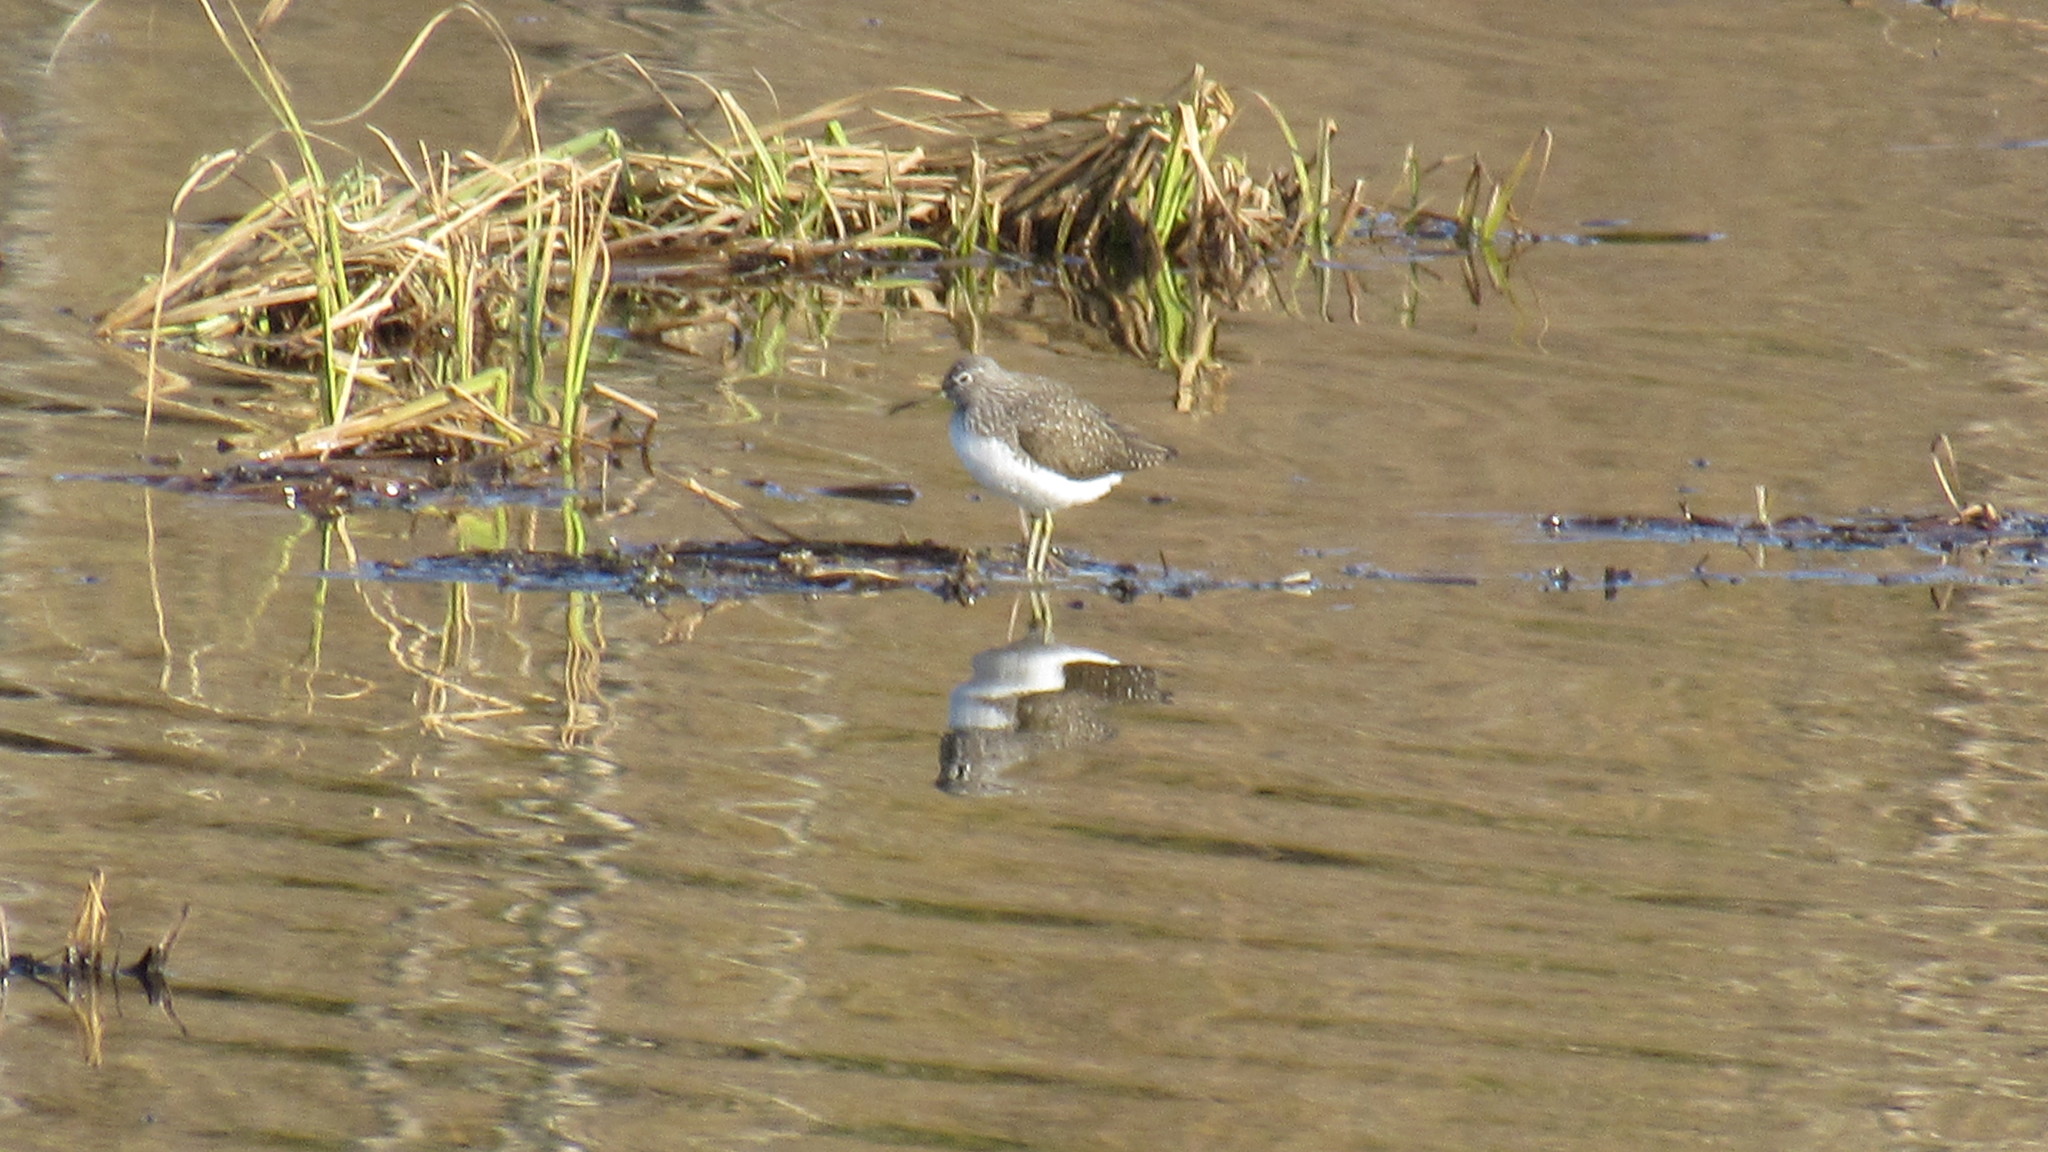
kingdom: Animalia
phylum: Chordata
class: Aves
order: Charadriiformes
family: Scolopacidae
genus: Tringa
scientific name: Tringa ochropus
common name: Green sandpiper
